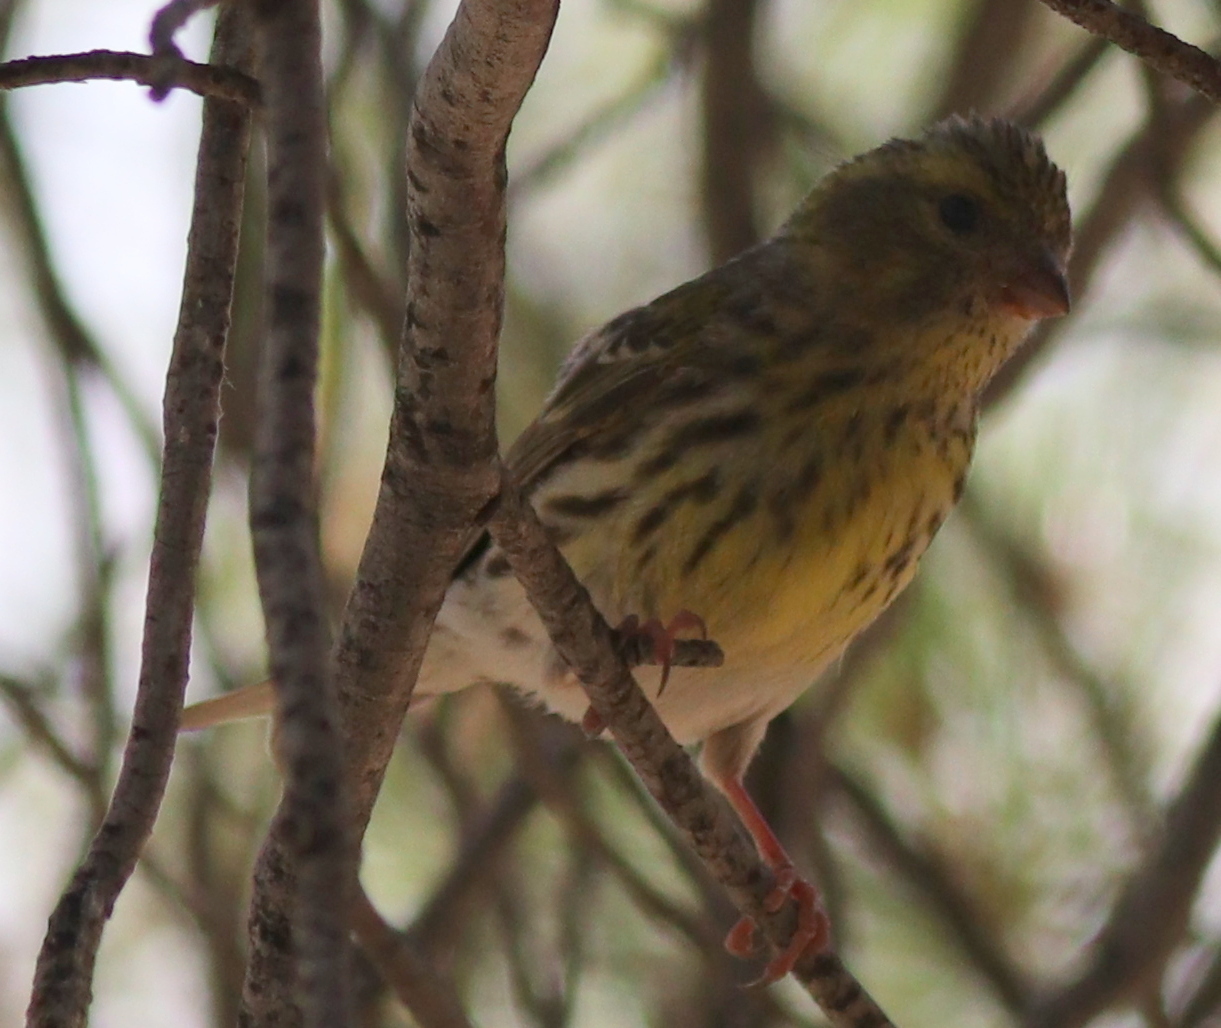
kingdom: Animalia
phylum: Chordata
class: Aves
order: Passeriformes
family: Fringillidae
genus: Serinus
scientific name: Serinus serinus
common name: European serin
